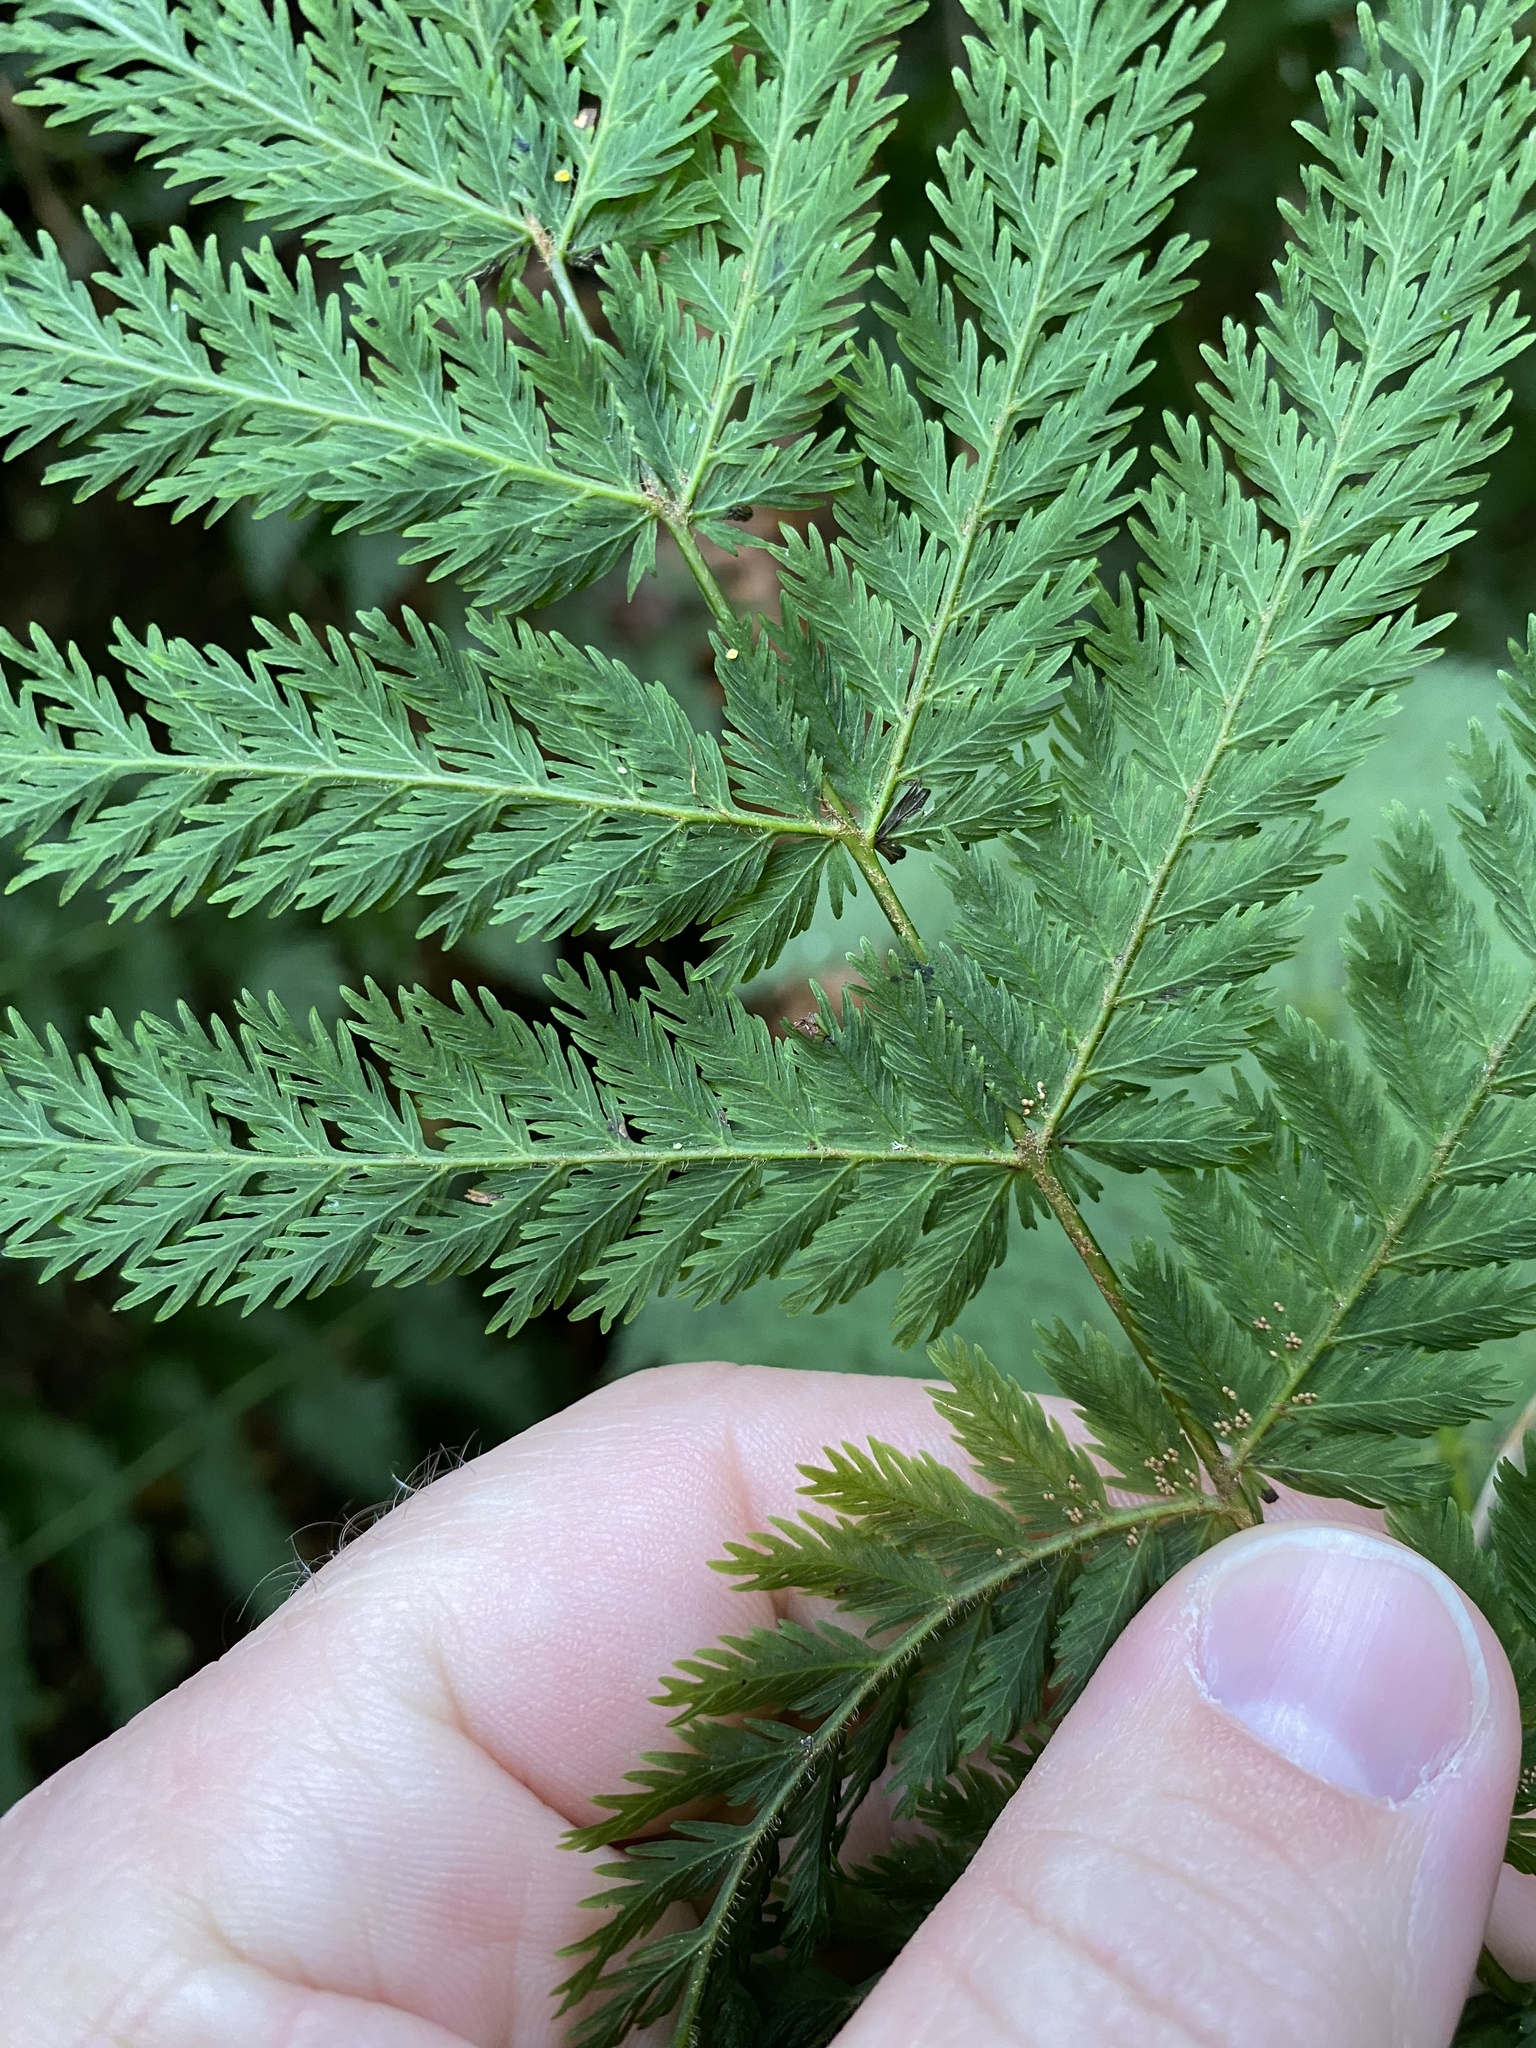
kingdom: Plantae
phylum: Tracheophyta
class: Polypodiopsida
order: Osmundales
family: Osmundaceae
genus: Leptopteris
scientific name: Leptopteris hymenophylloides
